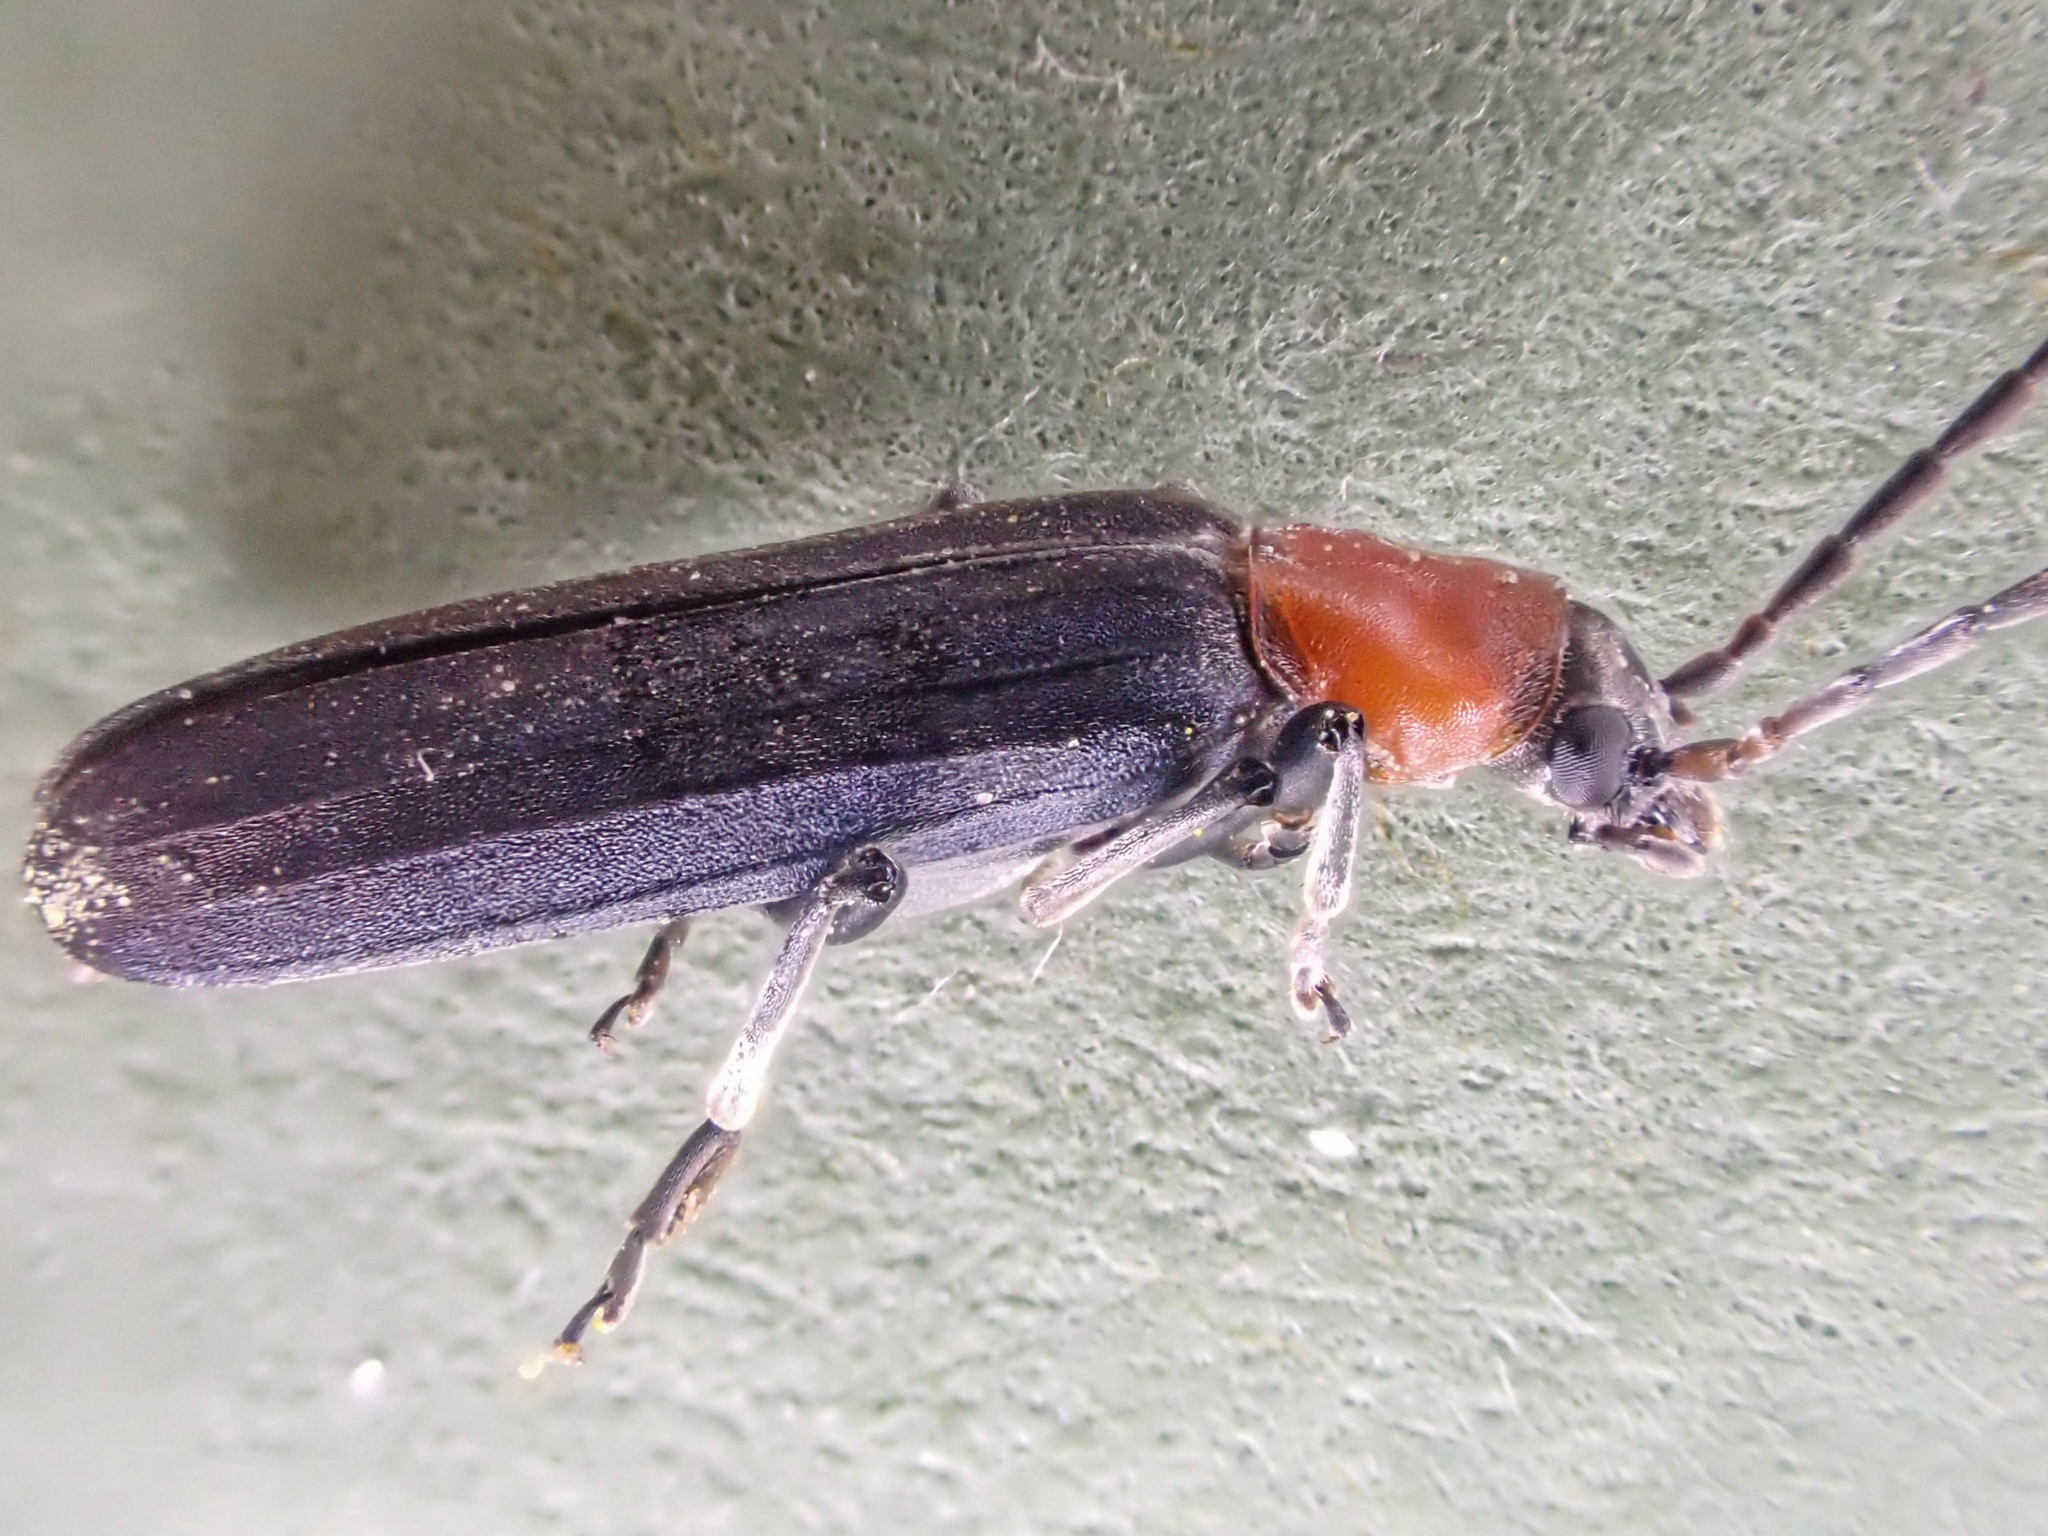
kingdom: Animalia
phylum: Arthropoda
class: Insecta
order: Coleoptera
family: Oedemeridae
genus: Ischnomera
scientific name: Ischnomera
